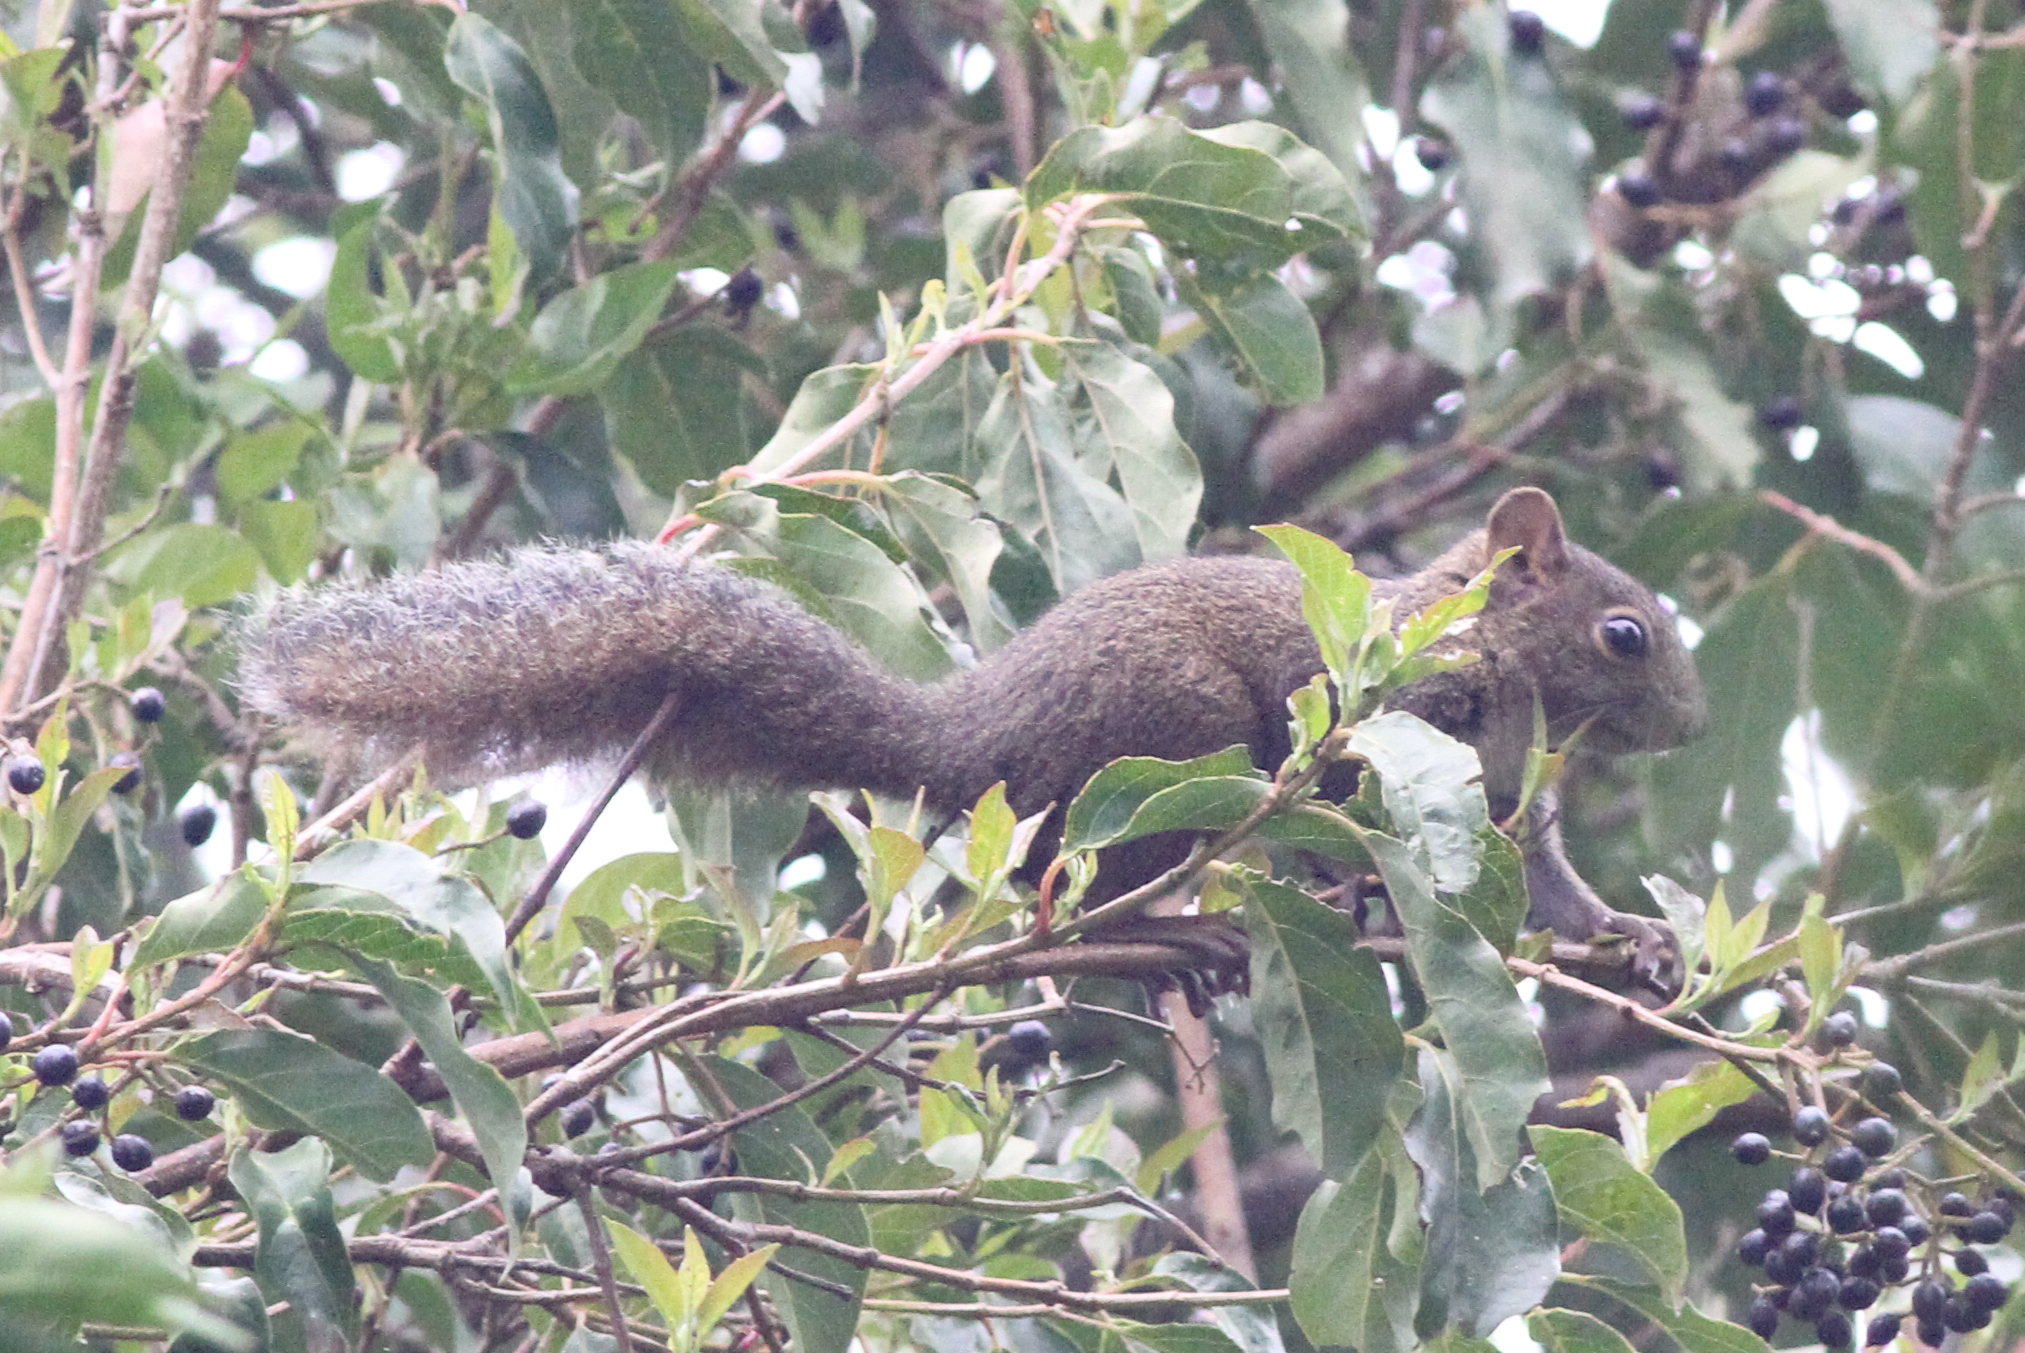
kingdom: Animalia
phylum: Chordata
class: Mammalia
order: Rodentia
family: Sciuridae
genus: Sciurus
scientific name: Sciurus deppei
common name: Deppe's squirrel
